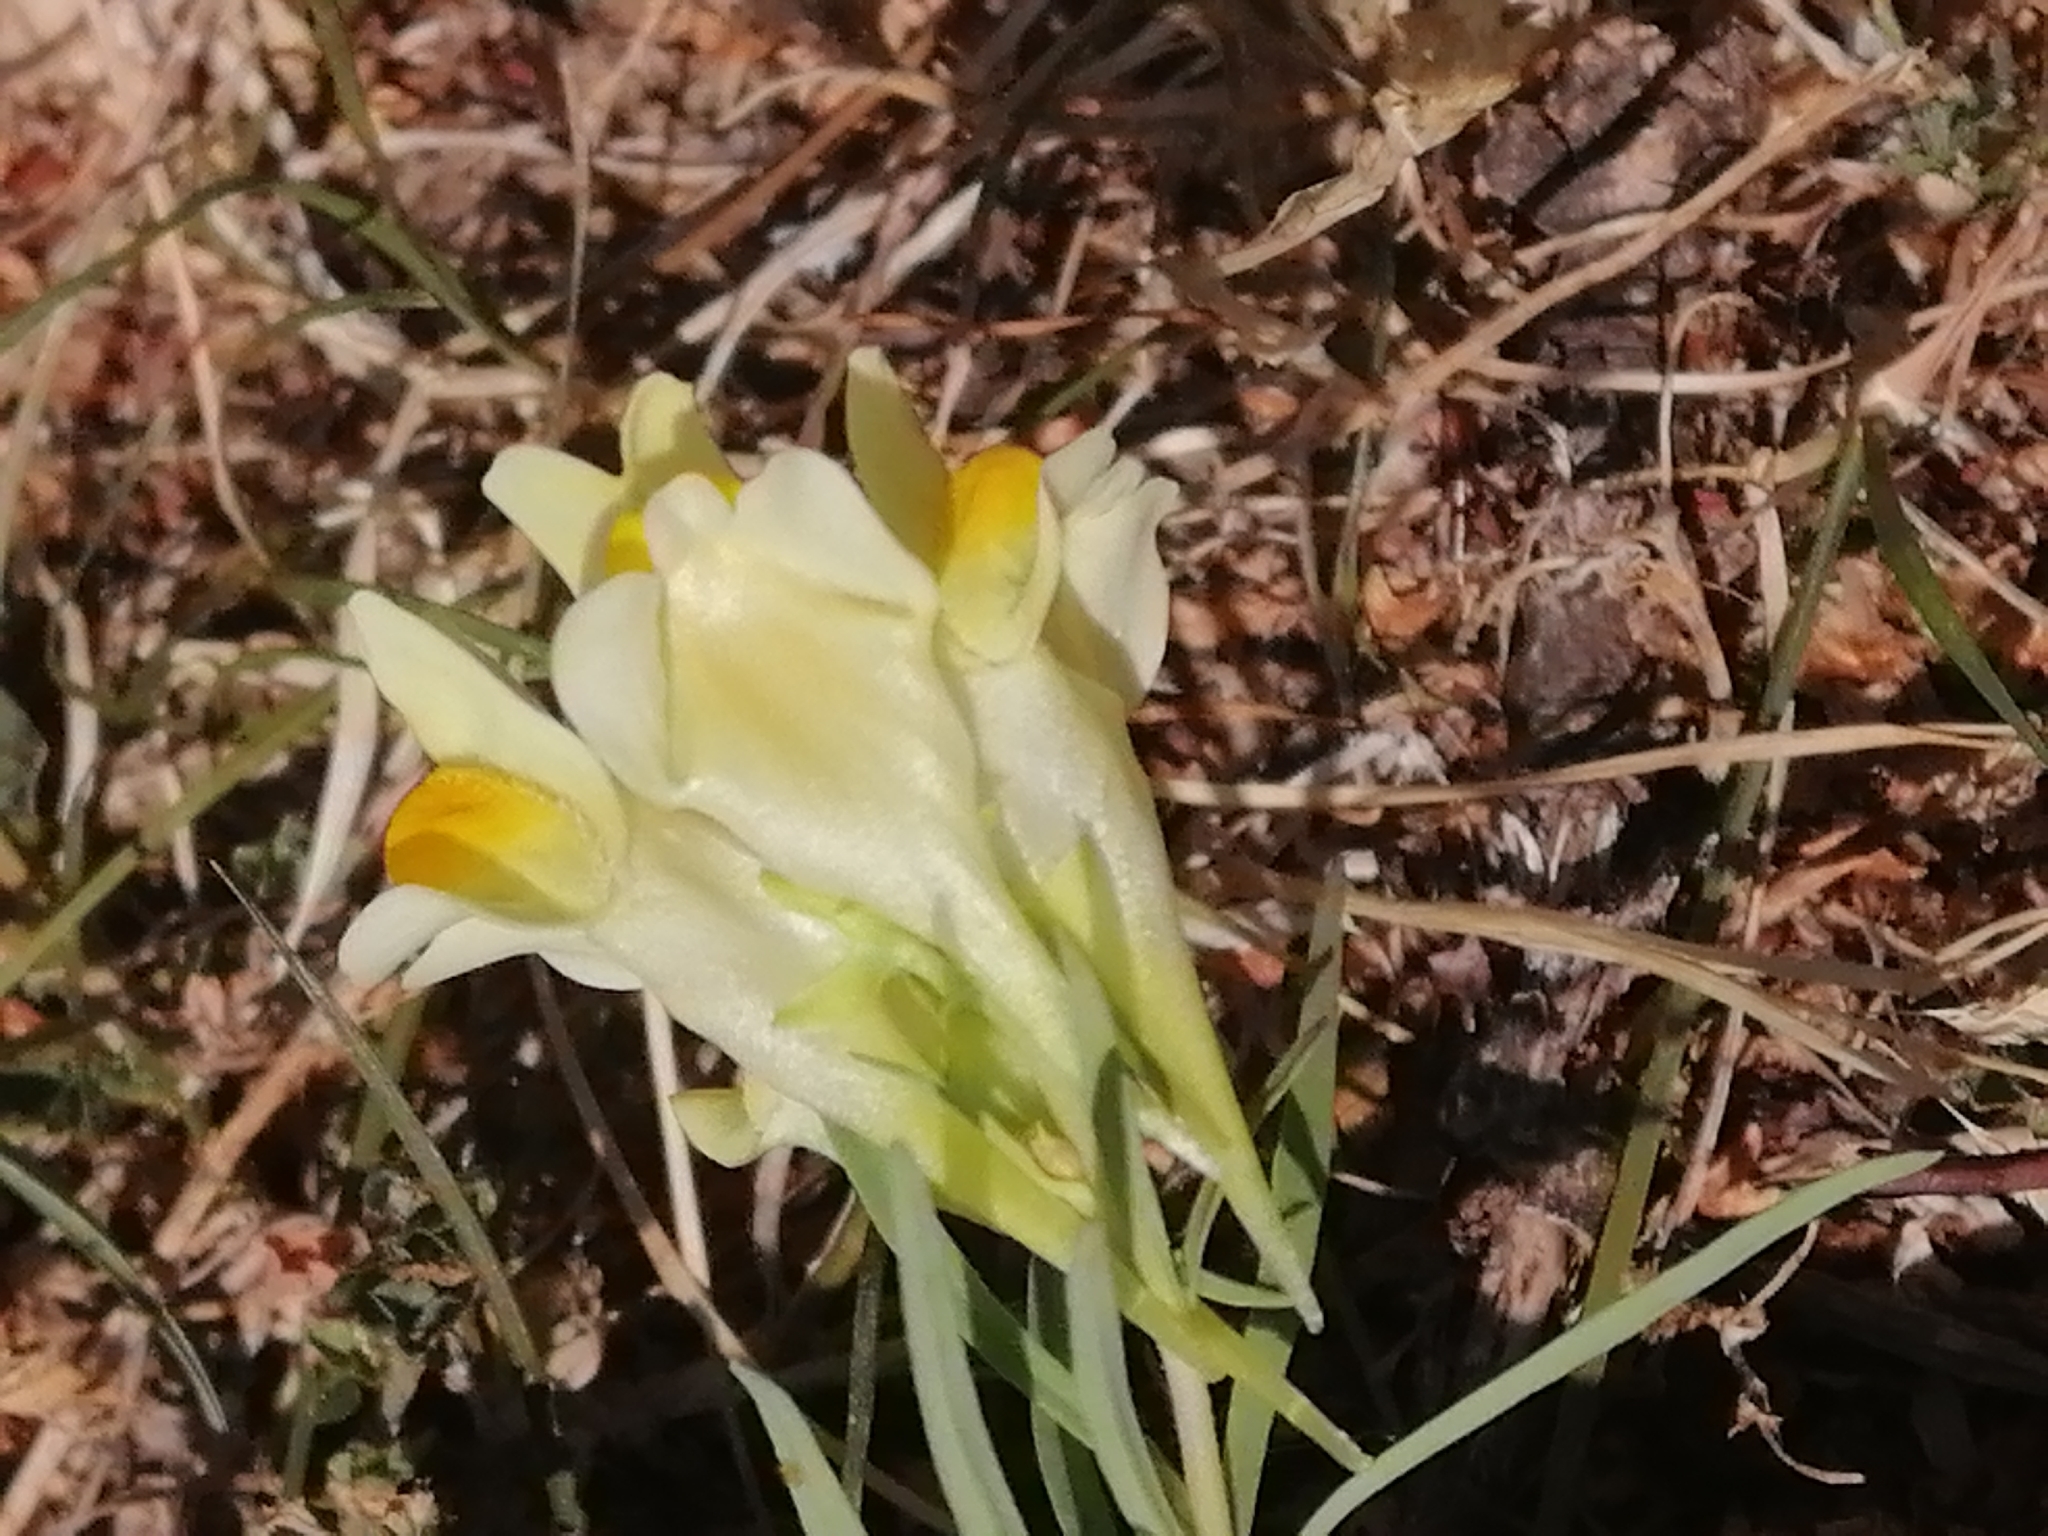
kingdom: Plantae
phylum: Tracheophyta
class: Magnoliopsida
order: Lamiales
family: Plantaginaceae
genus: Linaria
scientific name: Linaria vulgaris
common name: Butter and eggs
